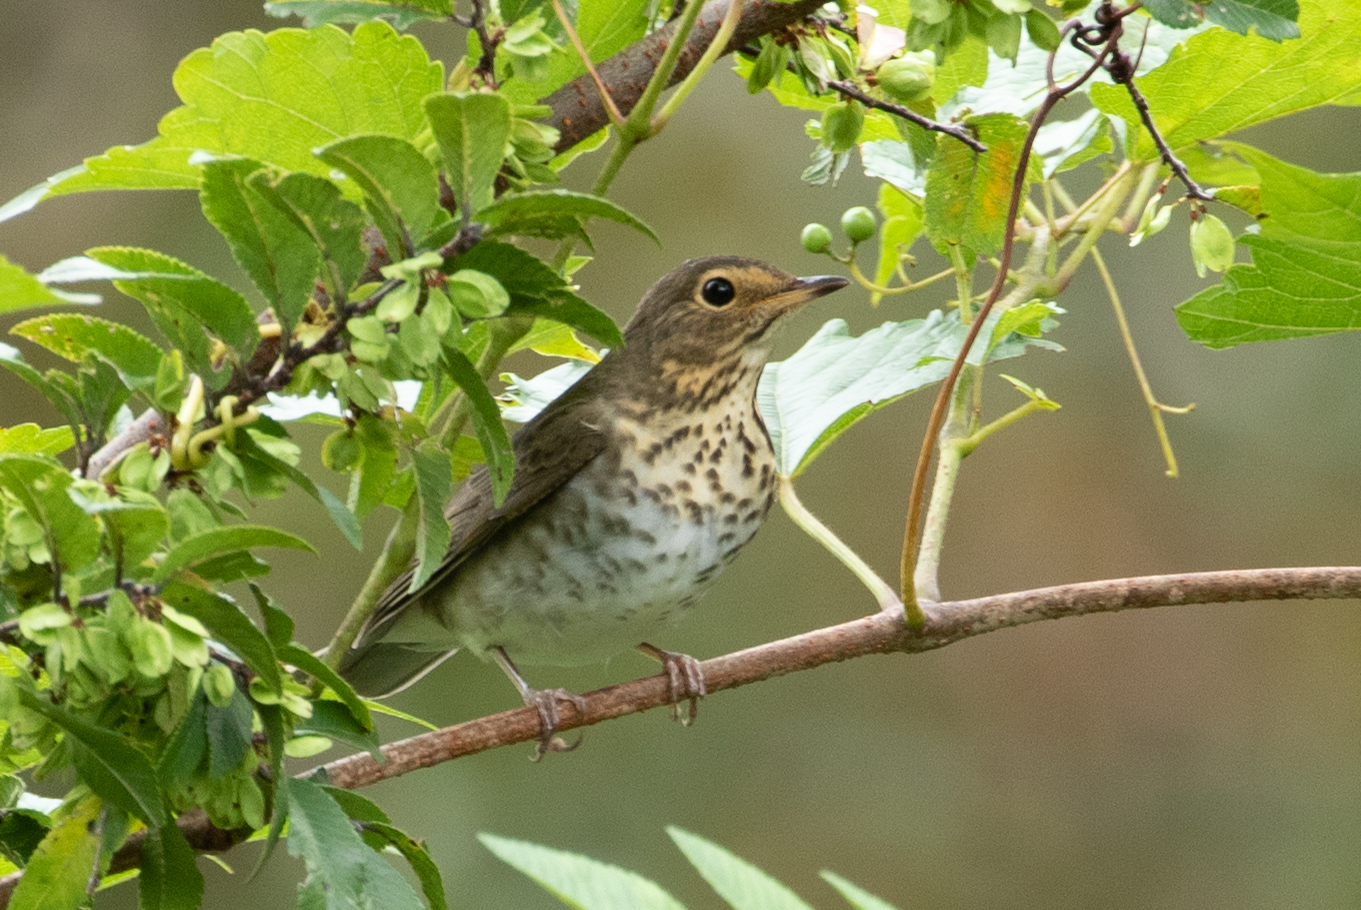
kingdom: Animalia
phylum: Chordata
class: Aves
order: Passeriformes
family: Turdidae
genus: Catharus
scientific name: Catharus ustulatus
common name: Swainson's thrush
